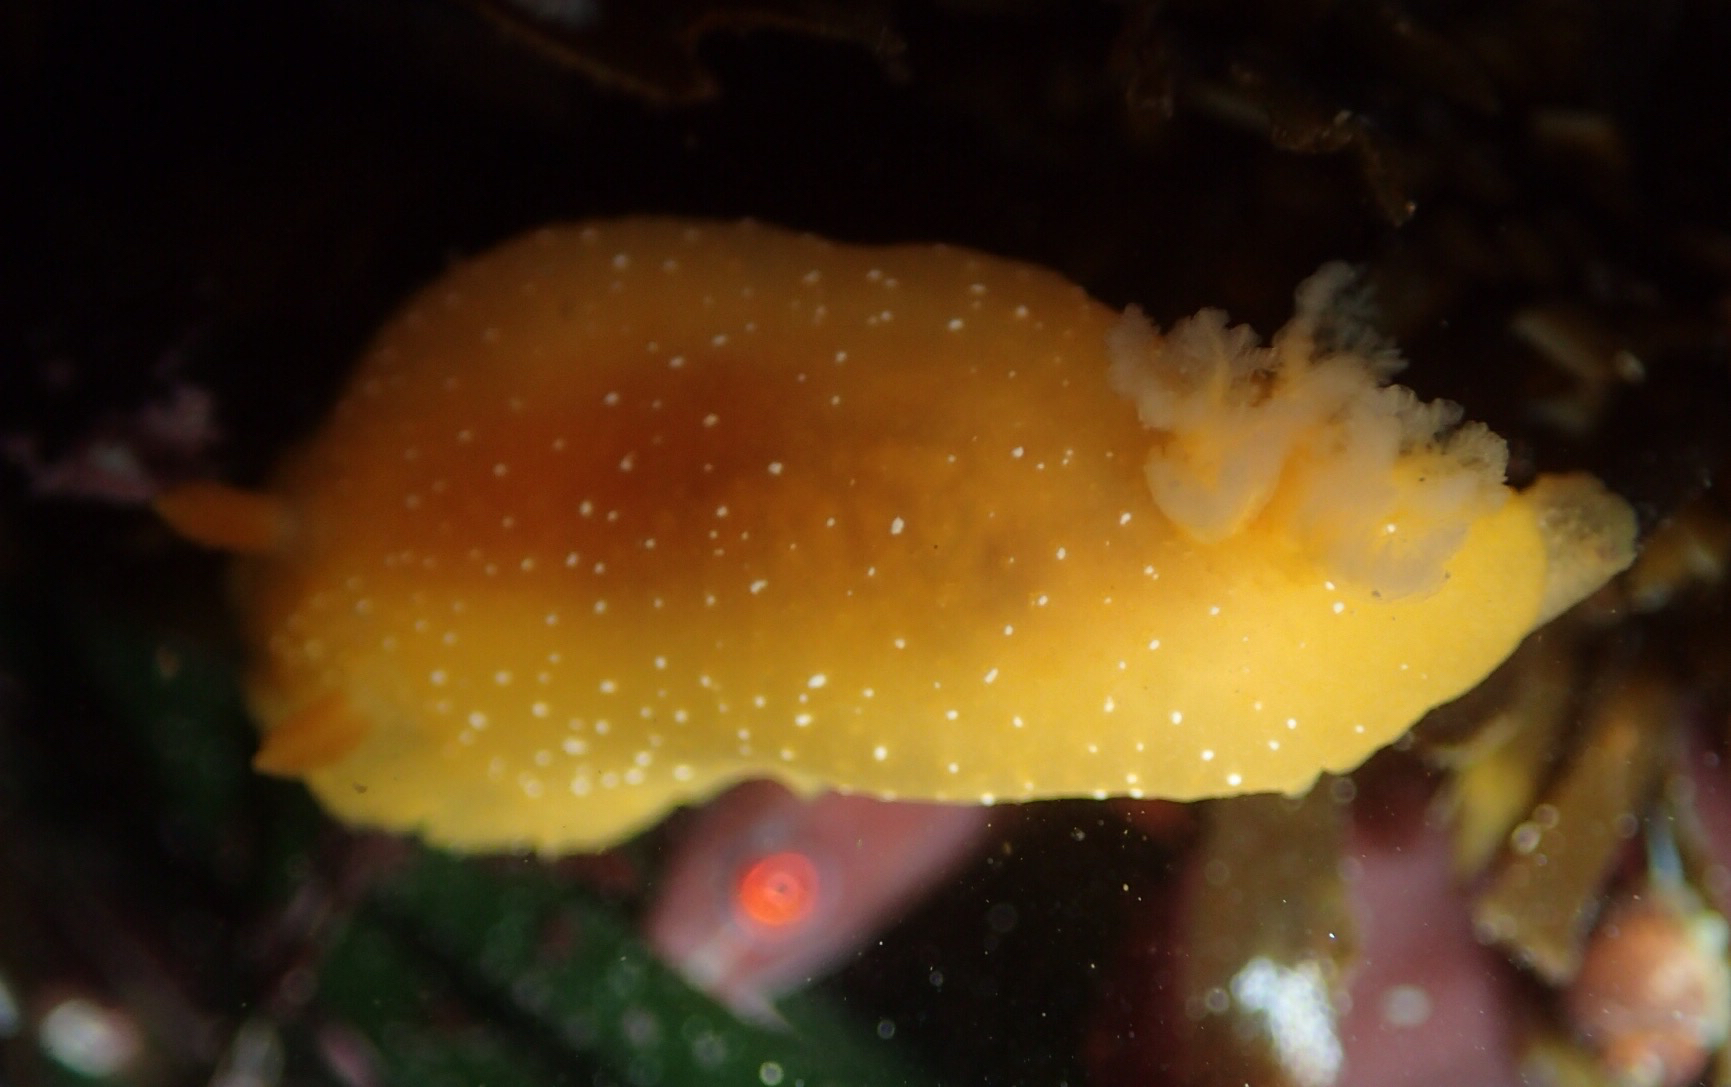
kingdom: Animalia
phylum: Mollusca
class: Gastropoda
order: Nudibranchia
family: Dendrodorididae
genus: Doriopsilla
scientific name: Doriopsilla fulva
